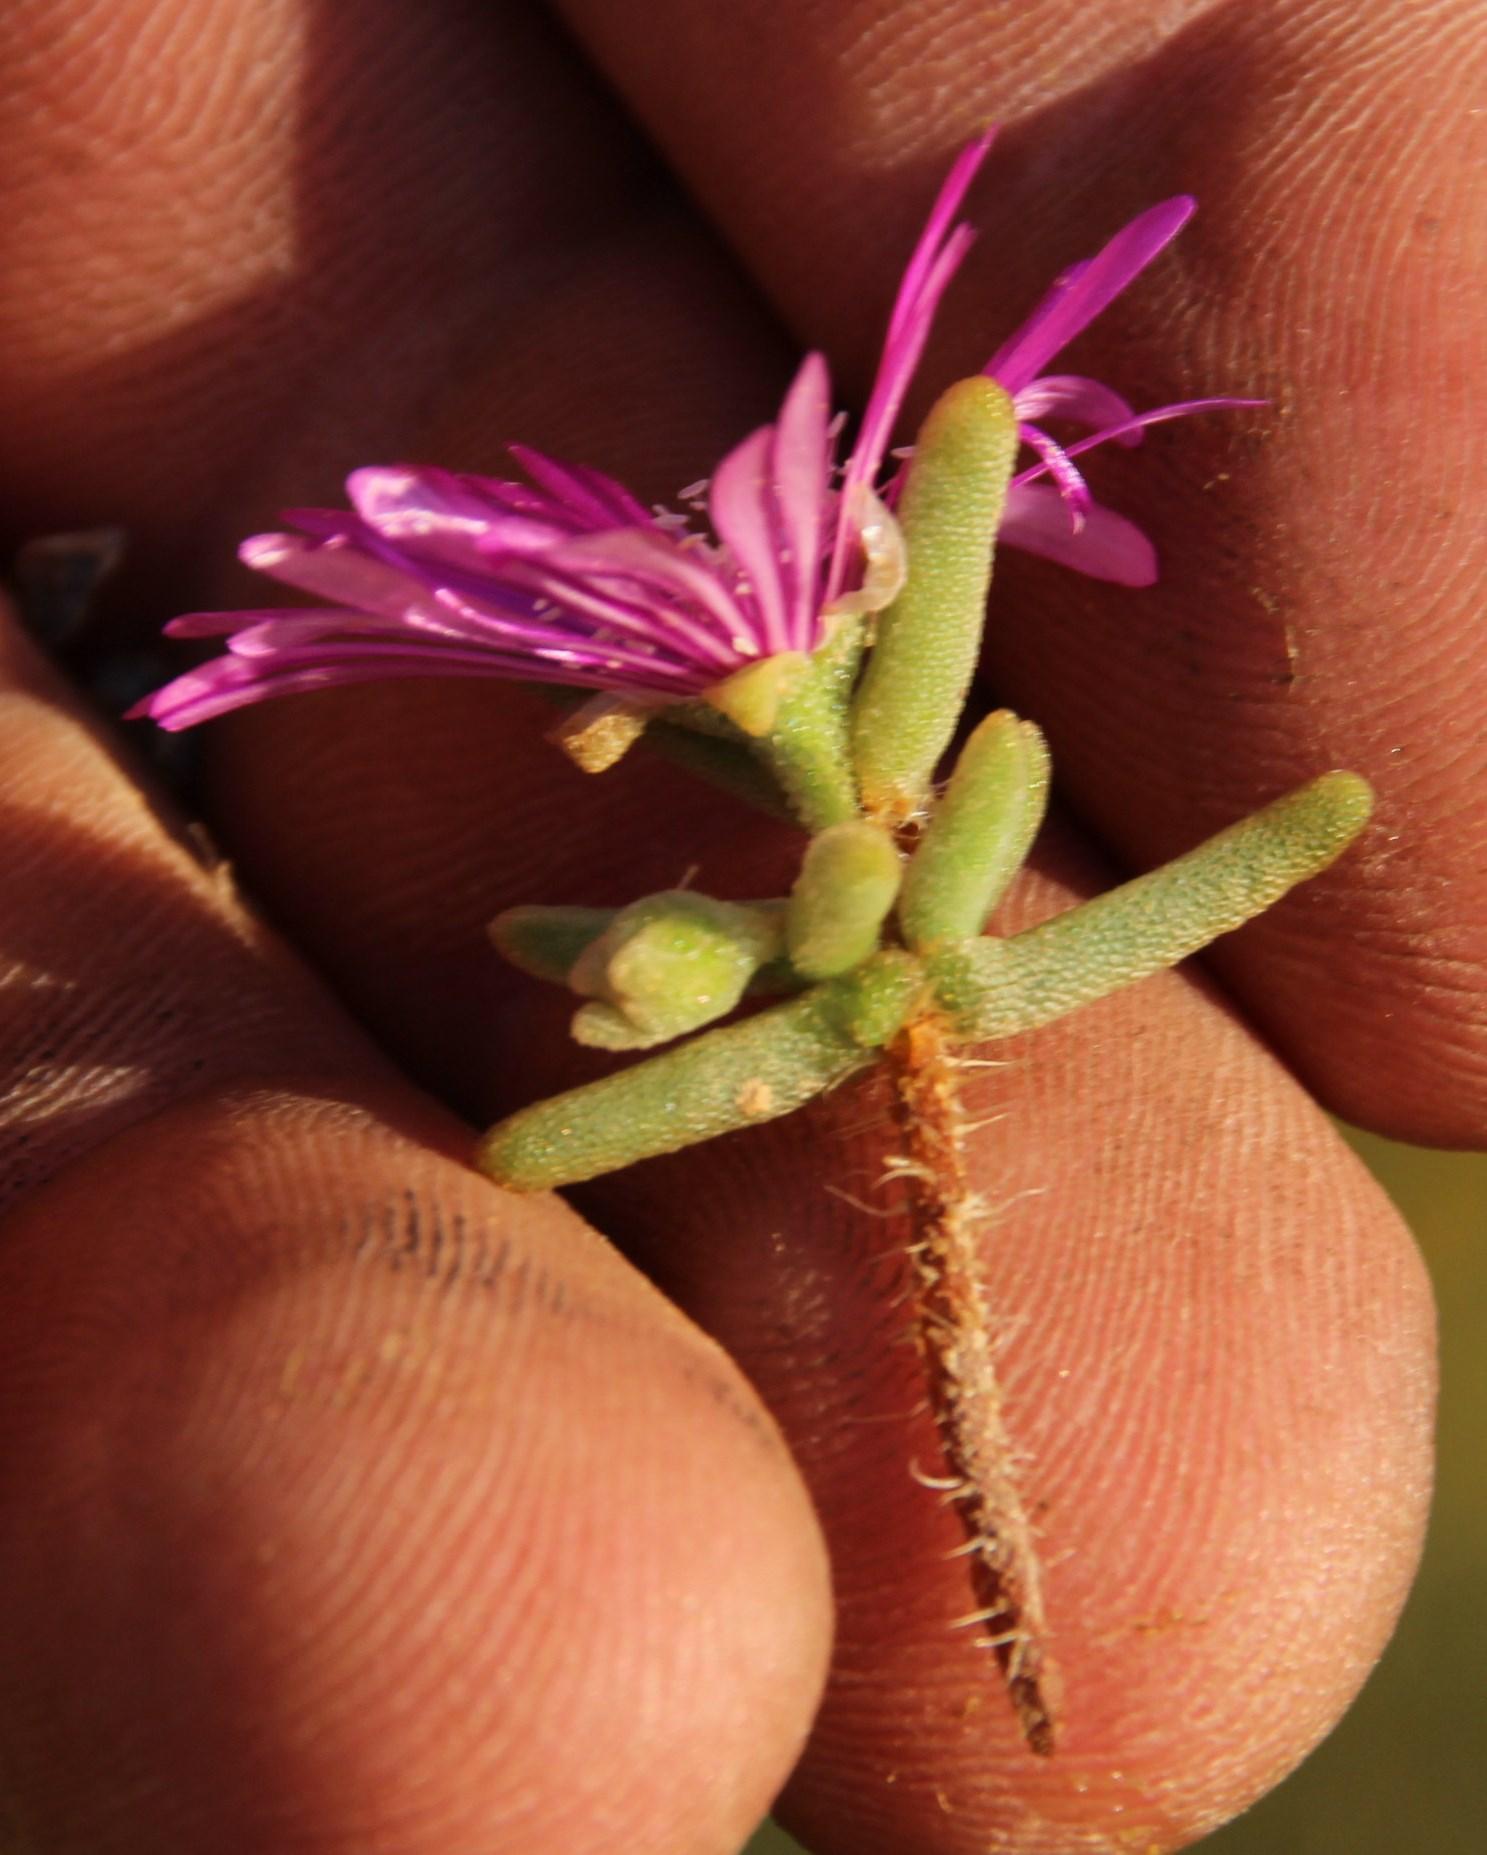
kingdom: Plantae
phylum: Tracheophyta
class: Magnoliopsida
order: Caryophyllales
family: Aizoaceae
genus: Drosanthemum
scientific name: Drosanthemum hispidum
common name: Hairy dewflower
